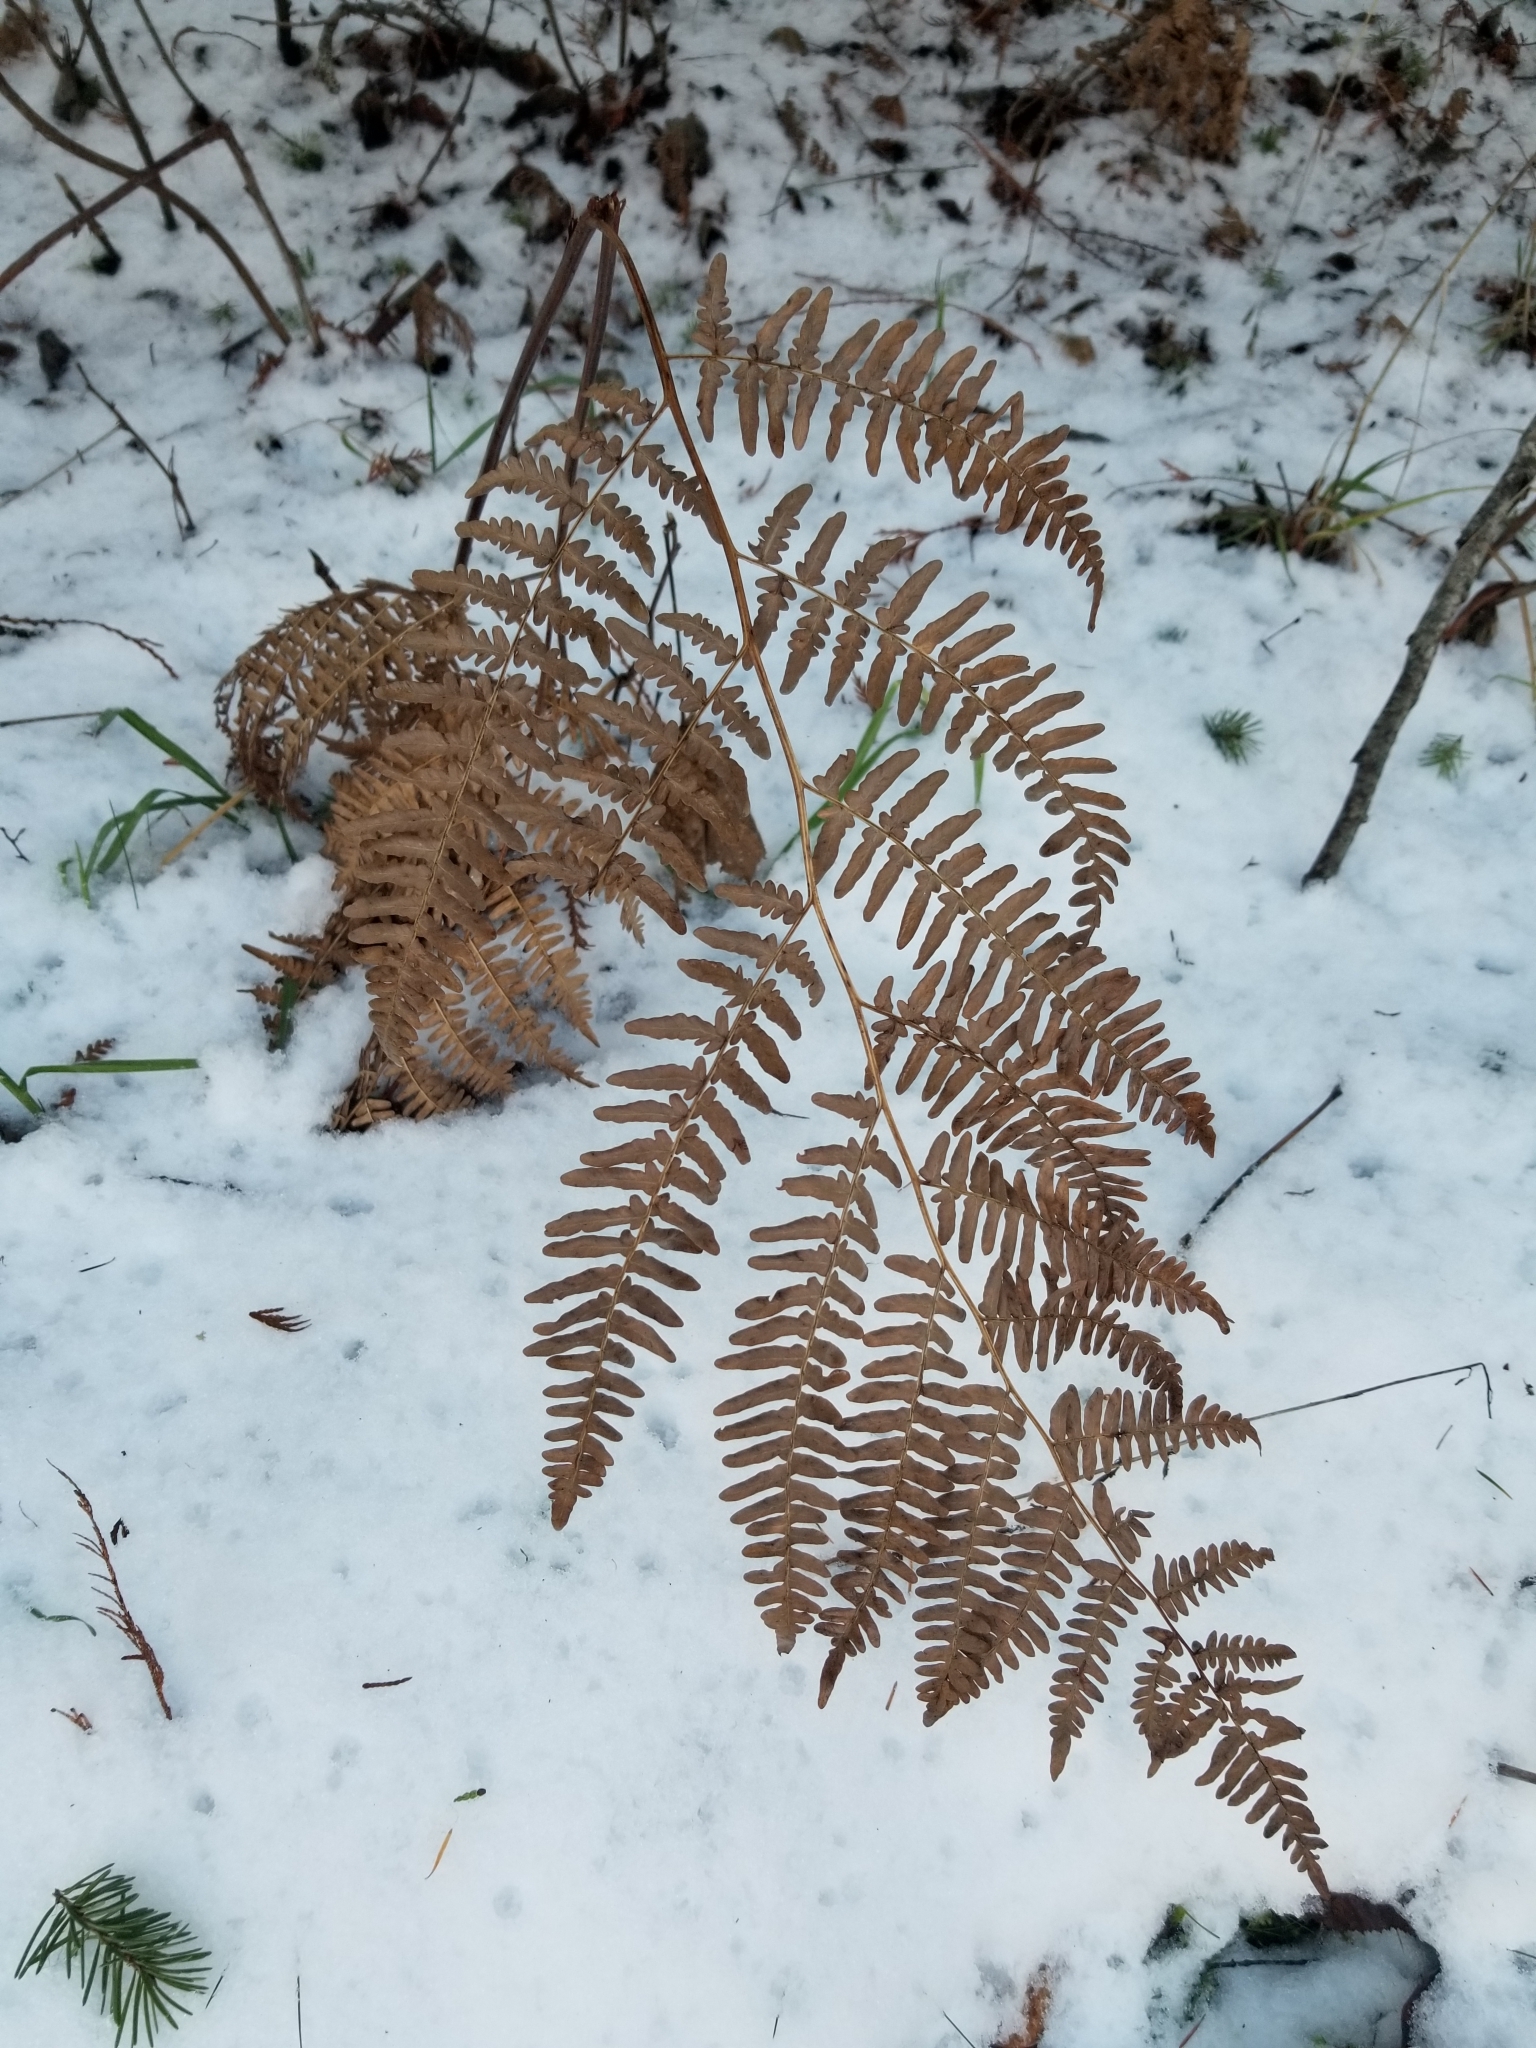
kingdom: Plantae
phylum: Tracheophyta
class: Polypodiopsida
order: Polypodiales
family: Dennstaedtiaceae
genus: Pteridium
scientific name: Pteridium aquilinum
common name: Bracken
